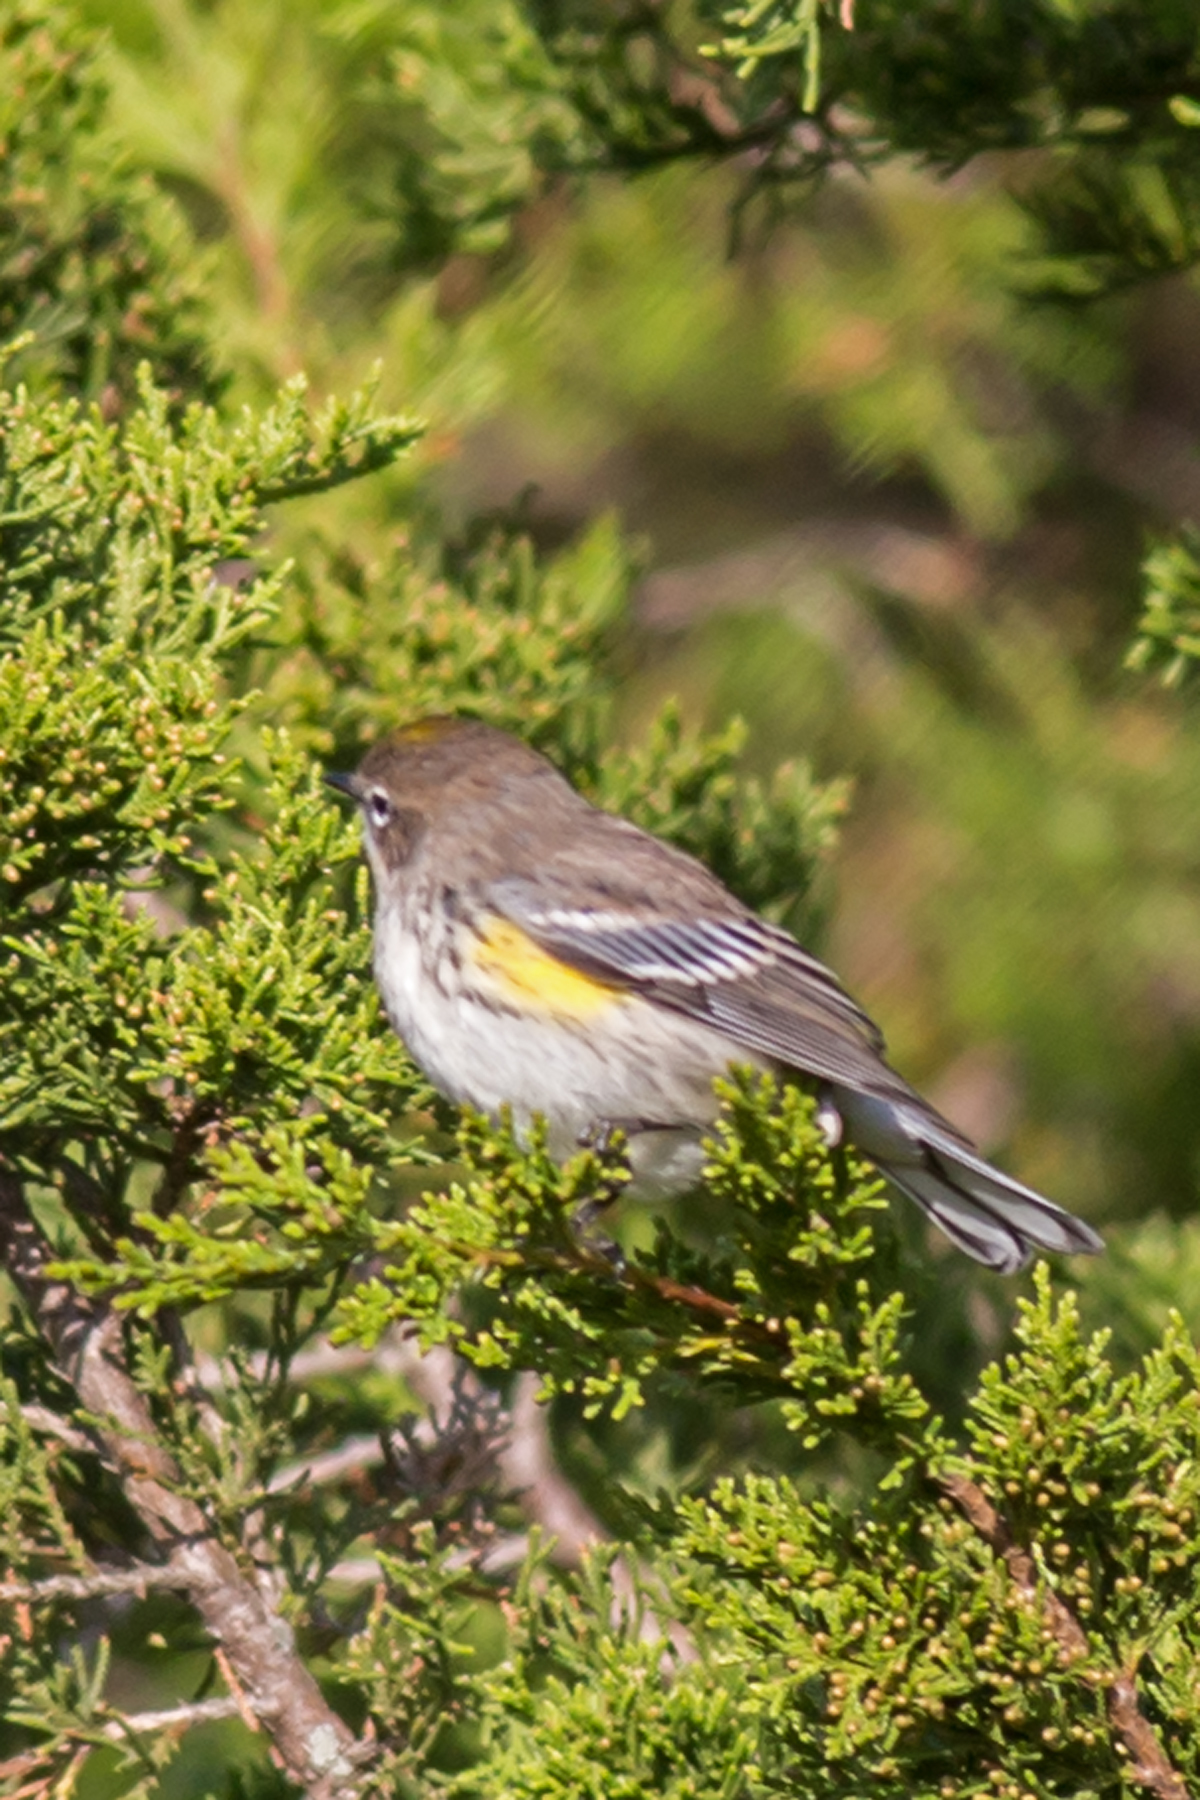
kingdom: Animalia
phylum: Chordata
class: Aves
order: Passeriformes
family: Parulidae
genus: Setophaga
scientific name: Setophaga coronata
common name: Myrtle warbler
